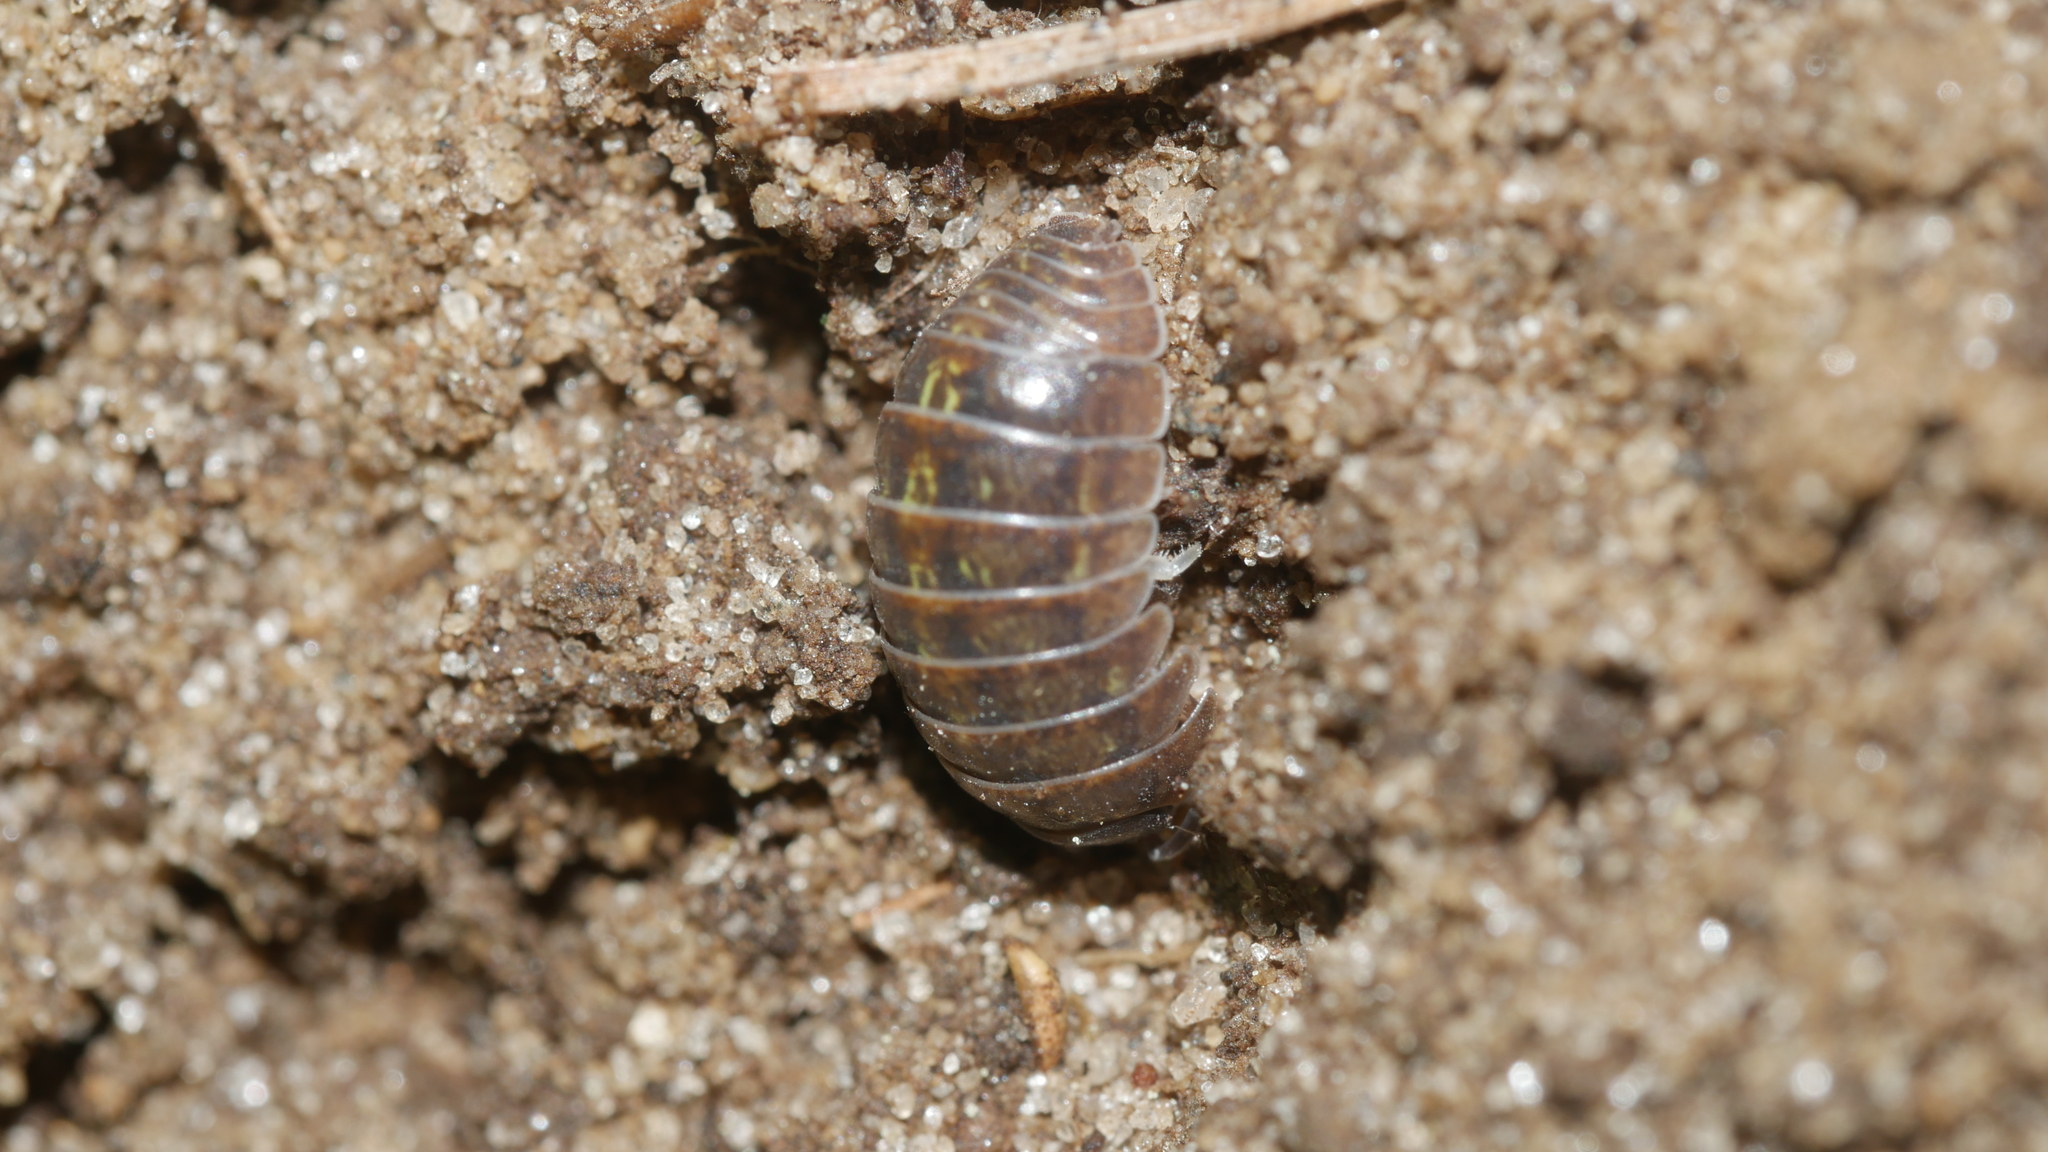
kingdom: Animalia
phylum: Arthropoda
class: Malacostraca
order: Isopoda
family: Armadillidiidae
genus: Armadillidium
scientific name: Armadillidium vulgare
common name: Common pill woodlouse
